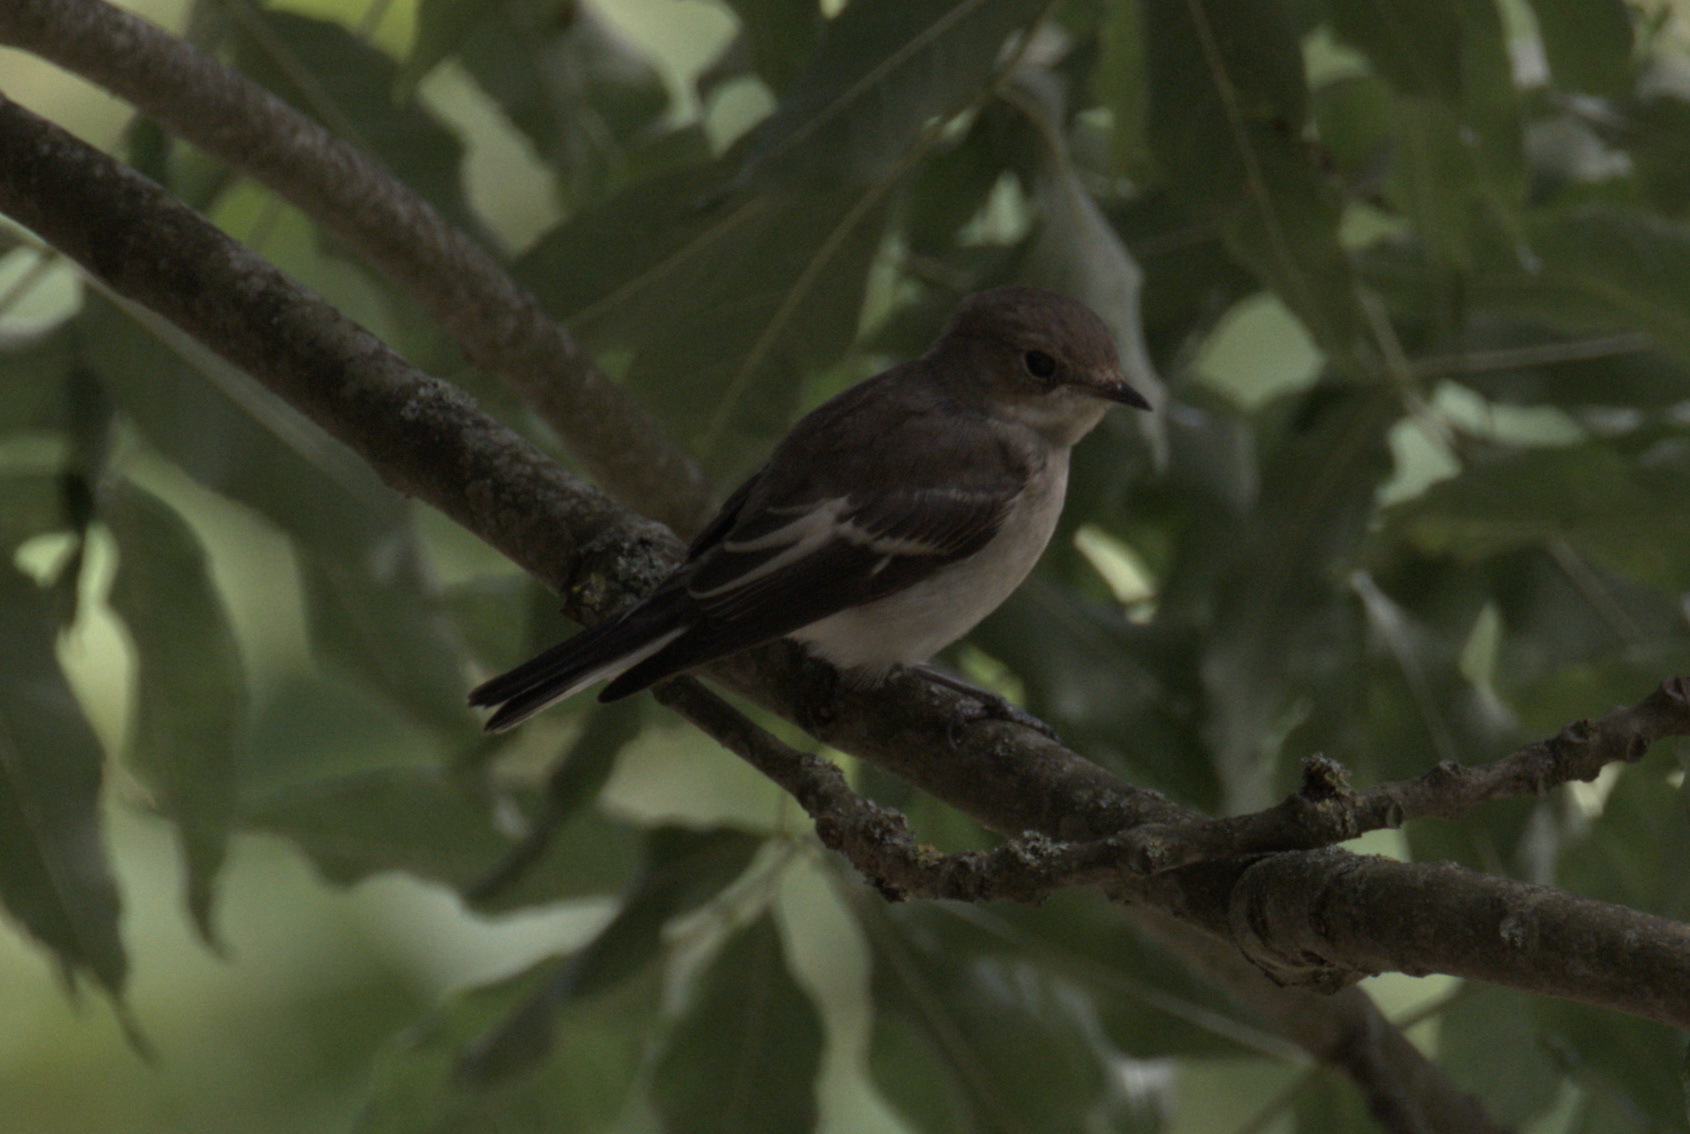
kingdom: Animalia
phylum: Chordata
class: Aves
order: Passeriformes
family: Muscicapidae
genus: Ficedula
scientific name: Ficedula hypoleuca
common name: European pied flycatcher
